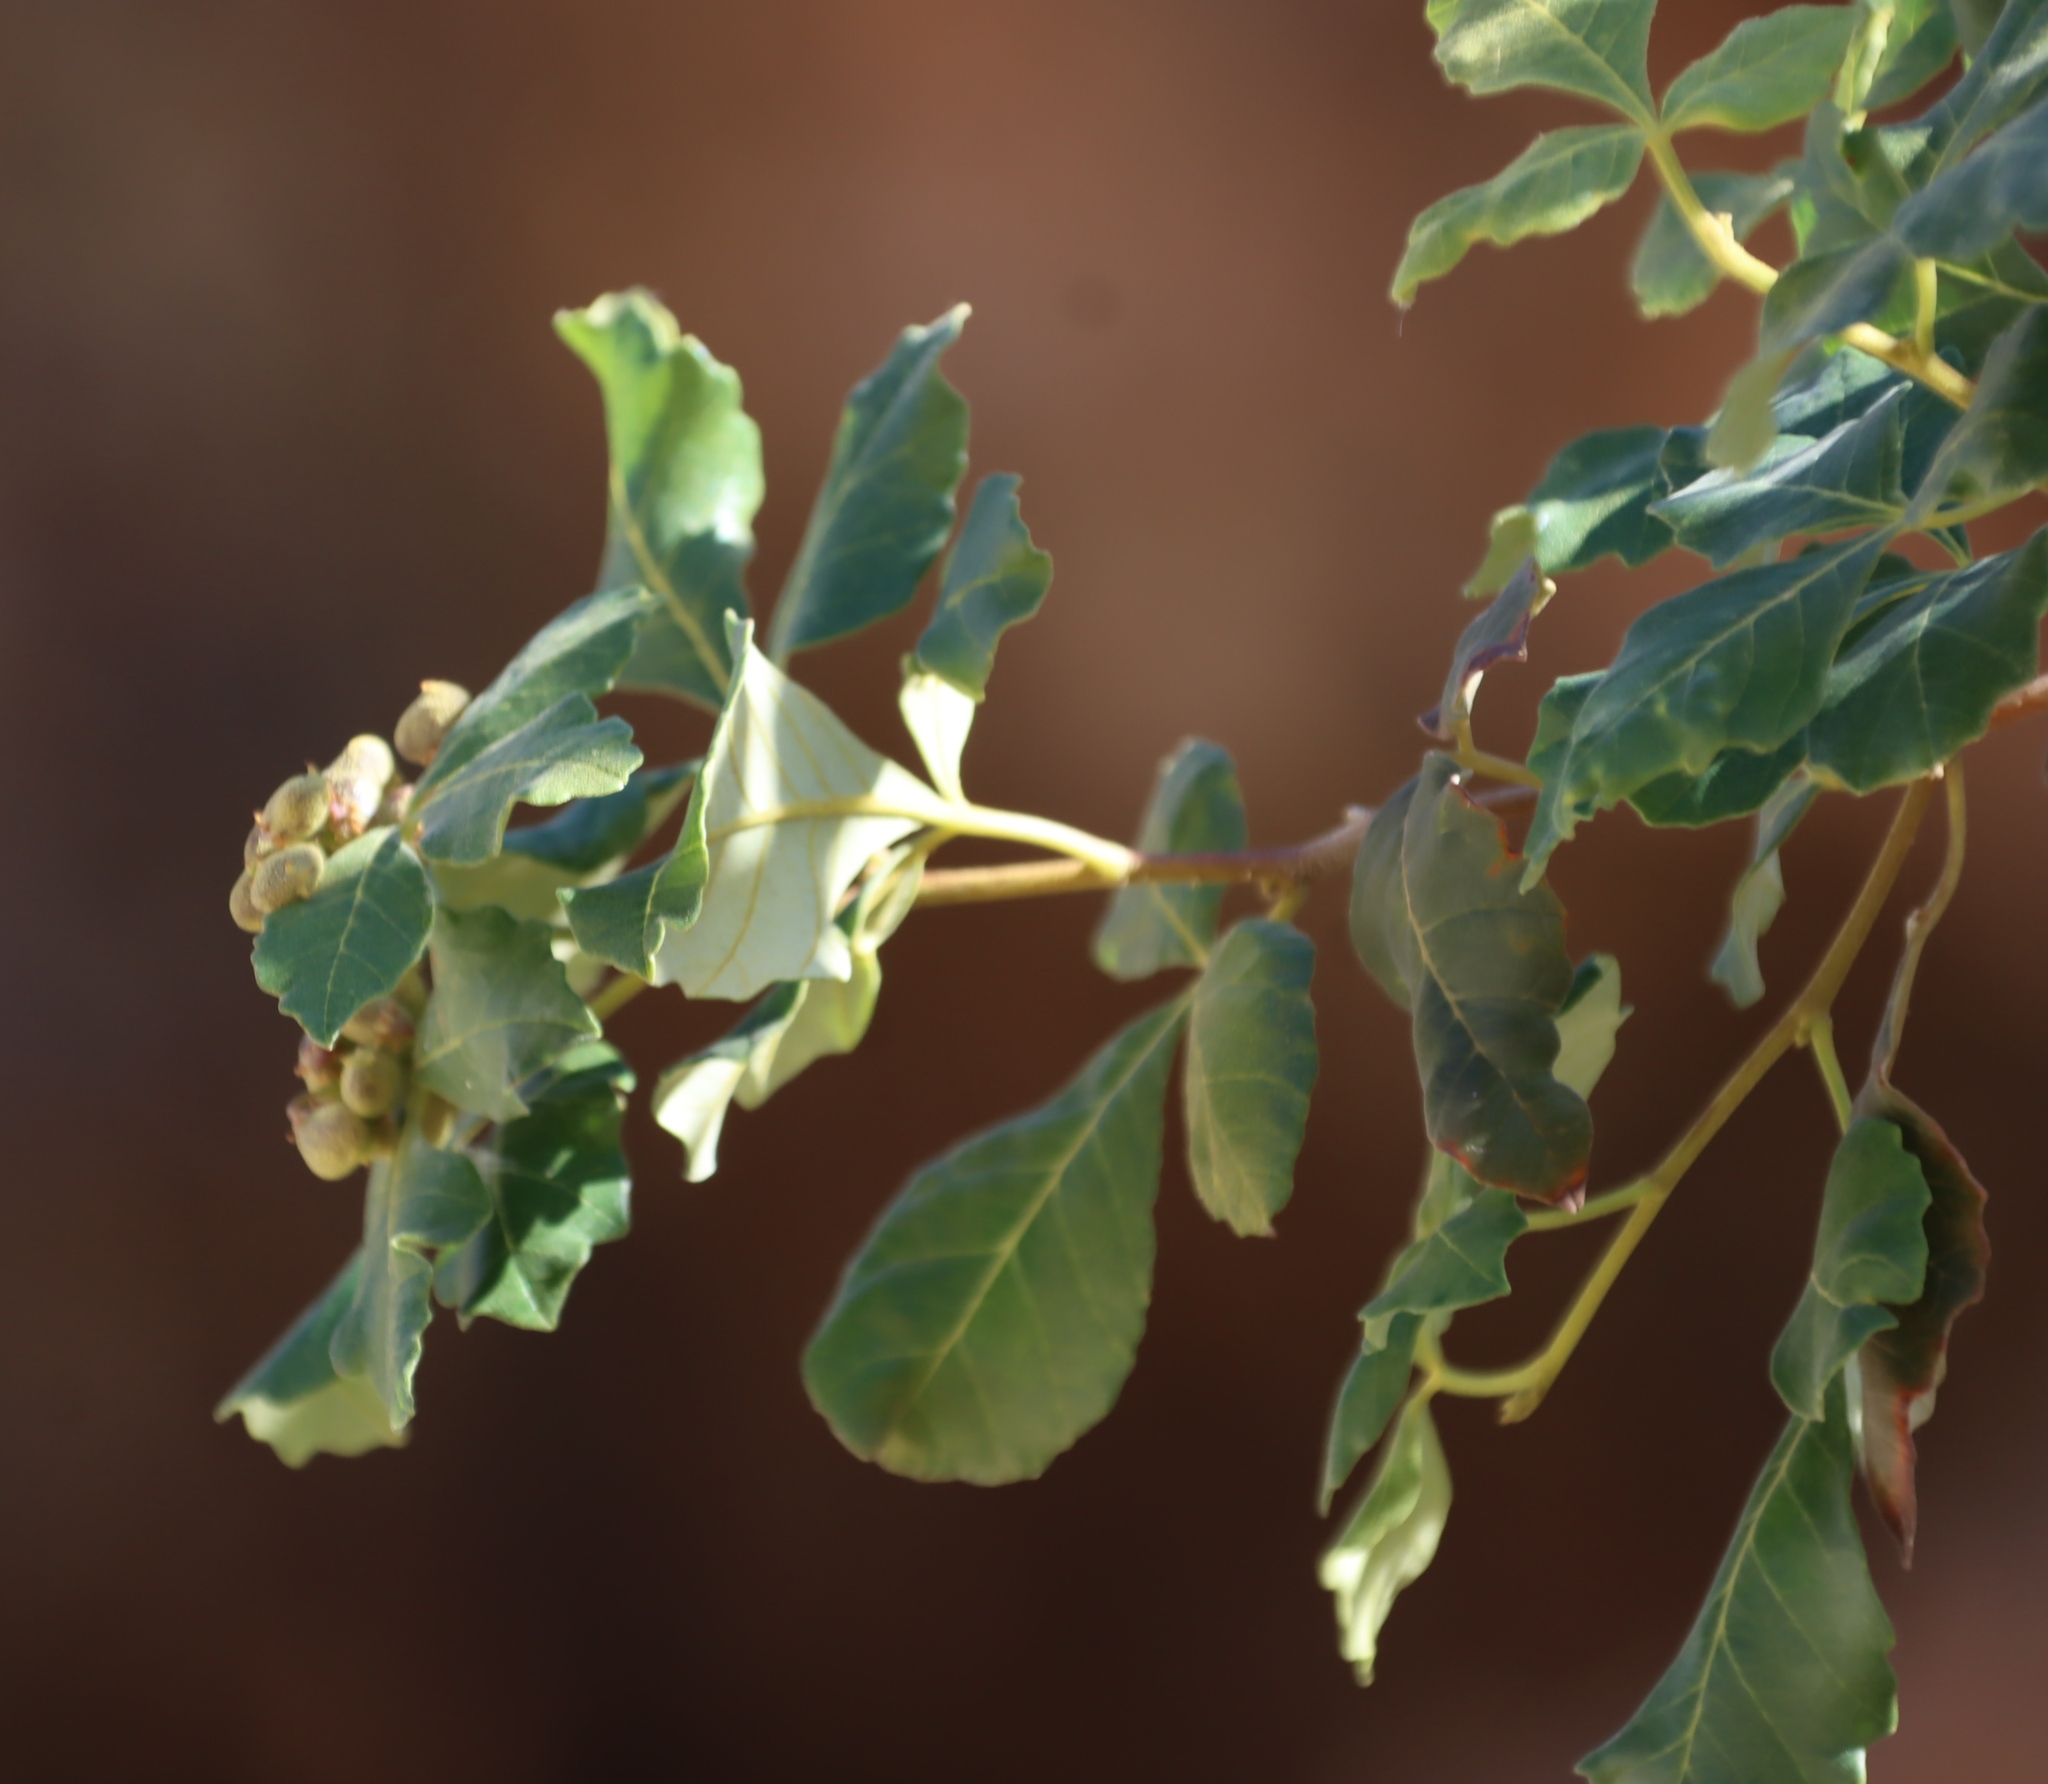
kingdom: Plantae
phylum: Tracheophyta
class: Magnoliopsida
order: Sapindales
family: Anacardiaceae
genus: Searsia
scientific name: Searsia populifolia
